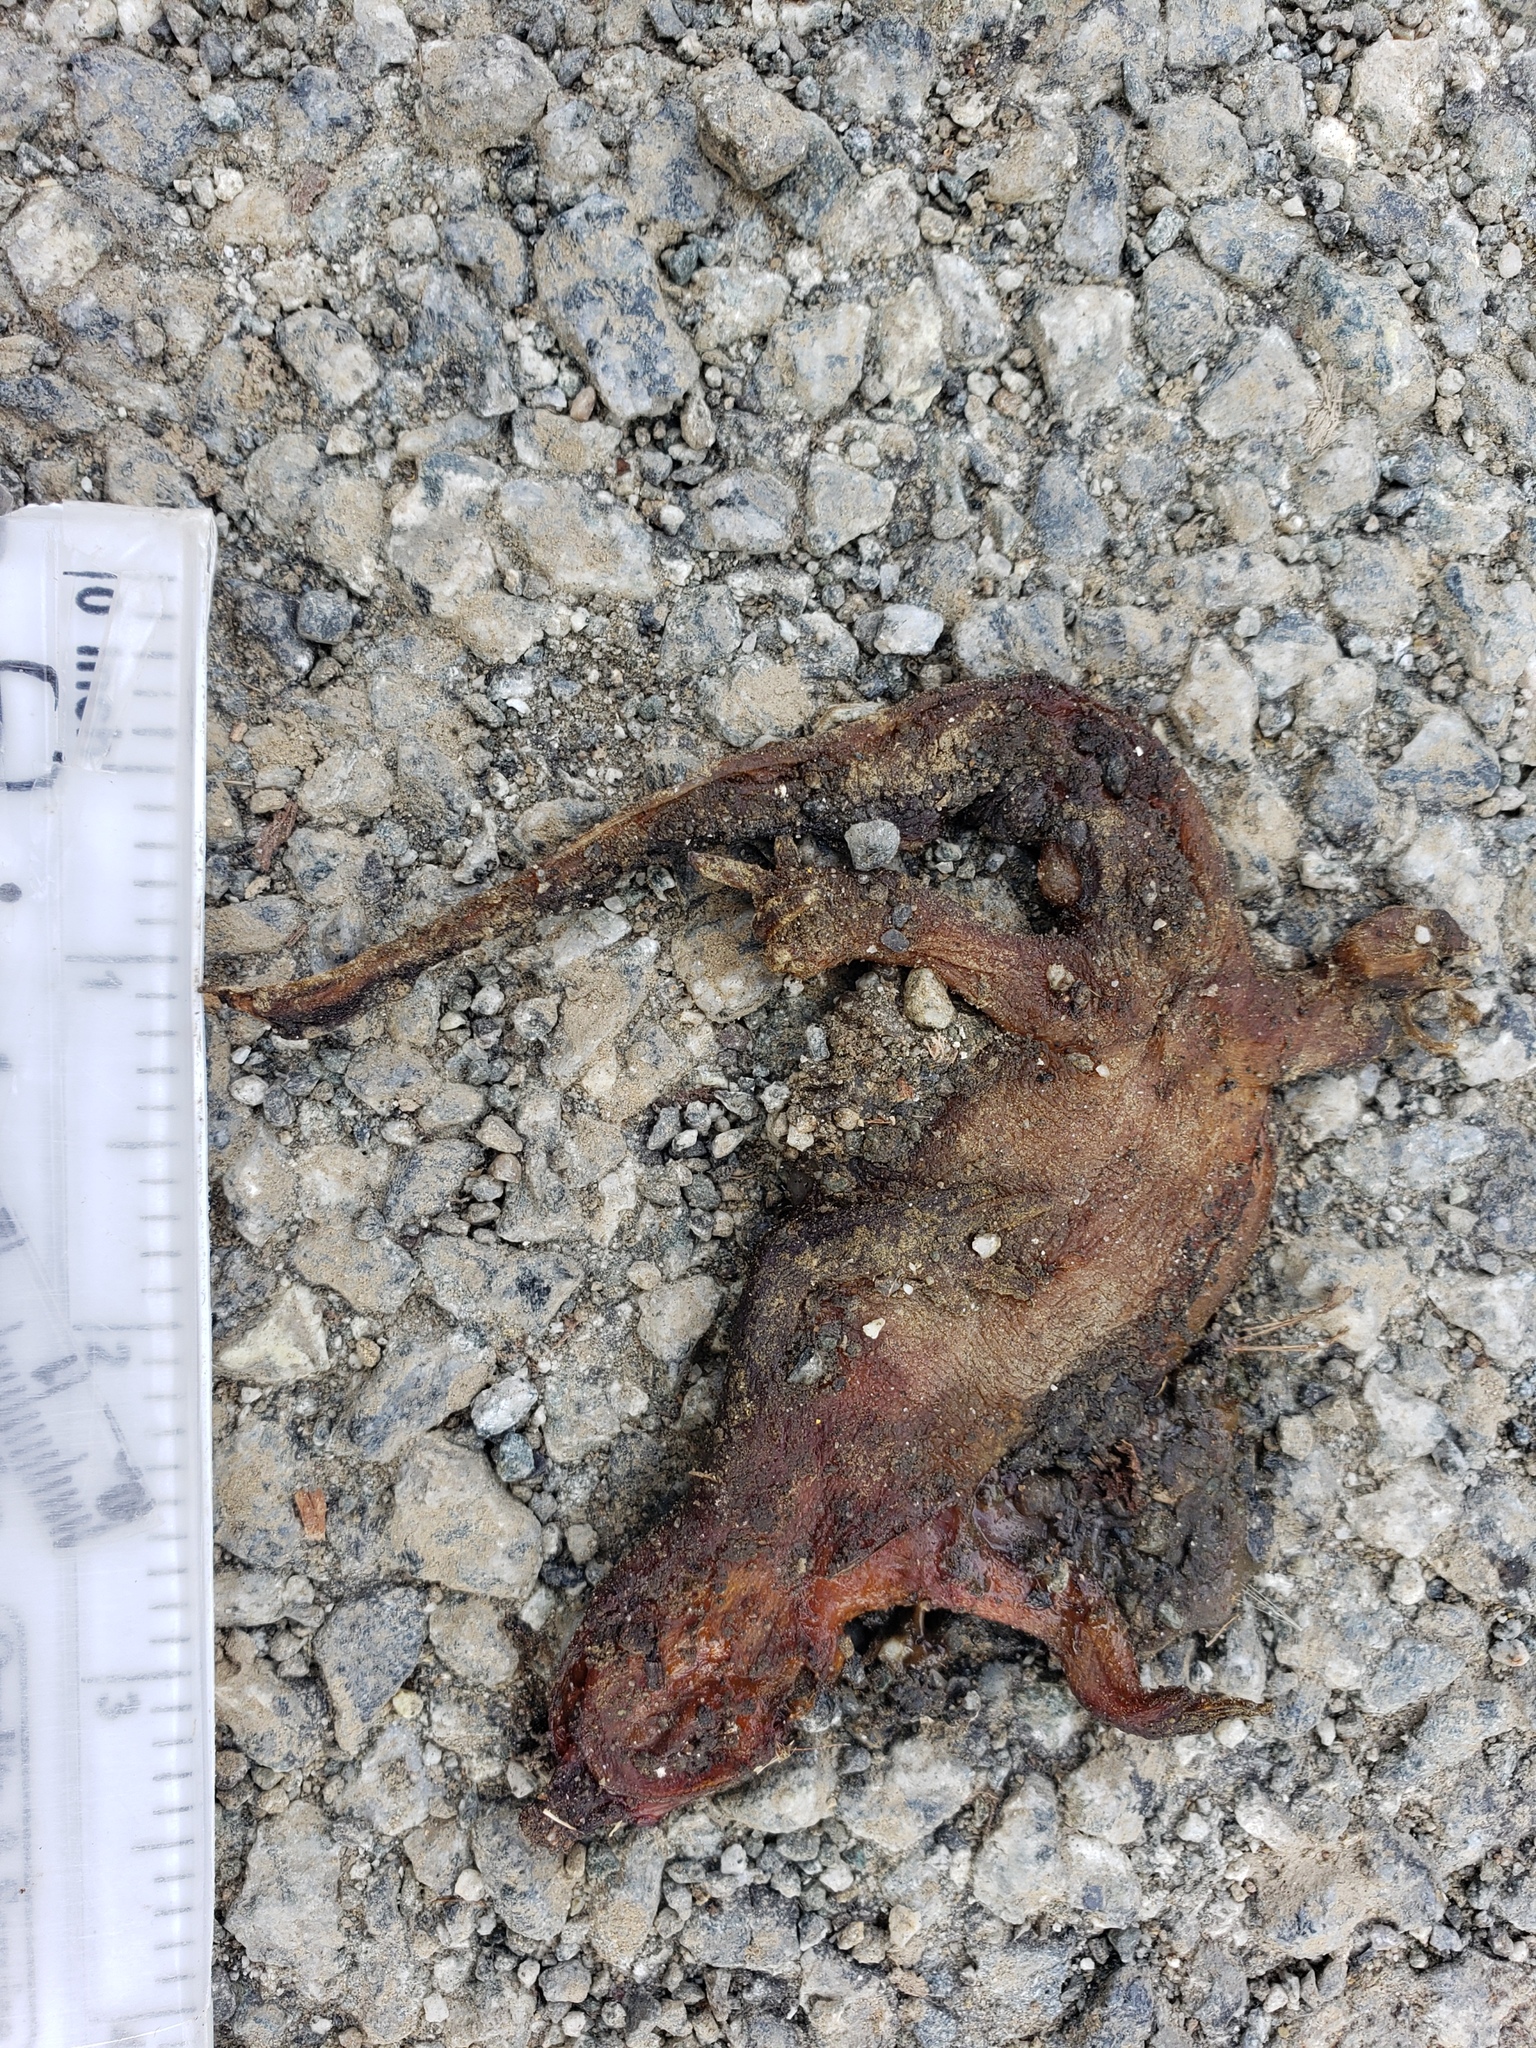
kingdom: Animalia
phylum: Chordata
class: Amphibia
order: Caudata
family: Salamandridae
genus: Taricha
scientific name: Taricha
